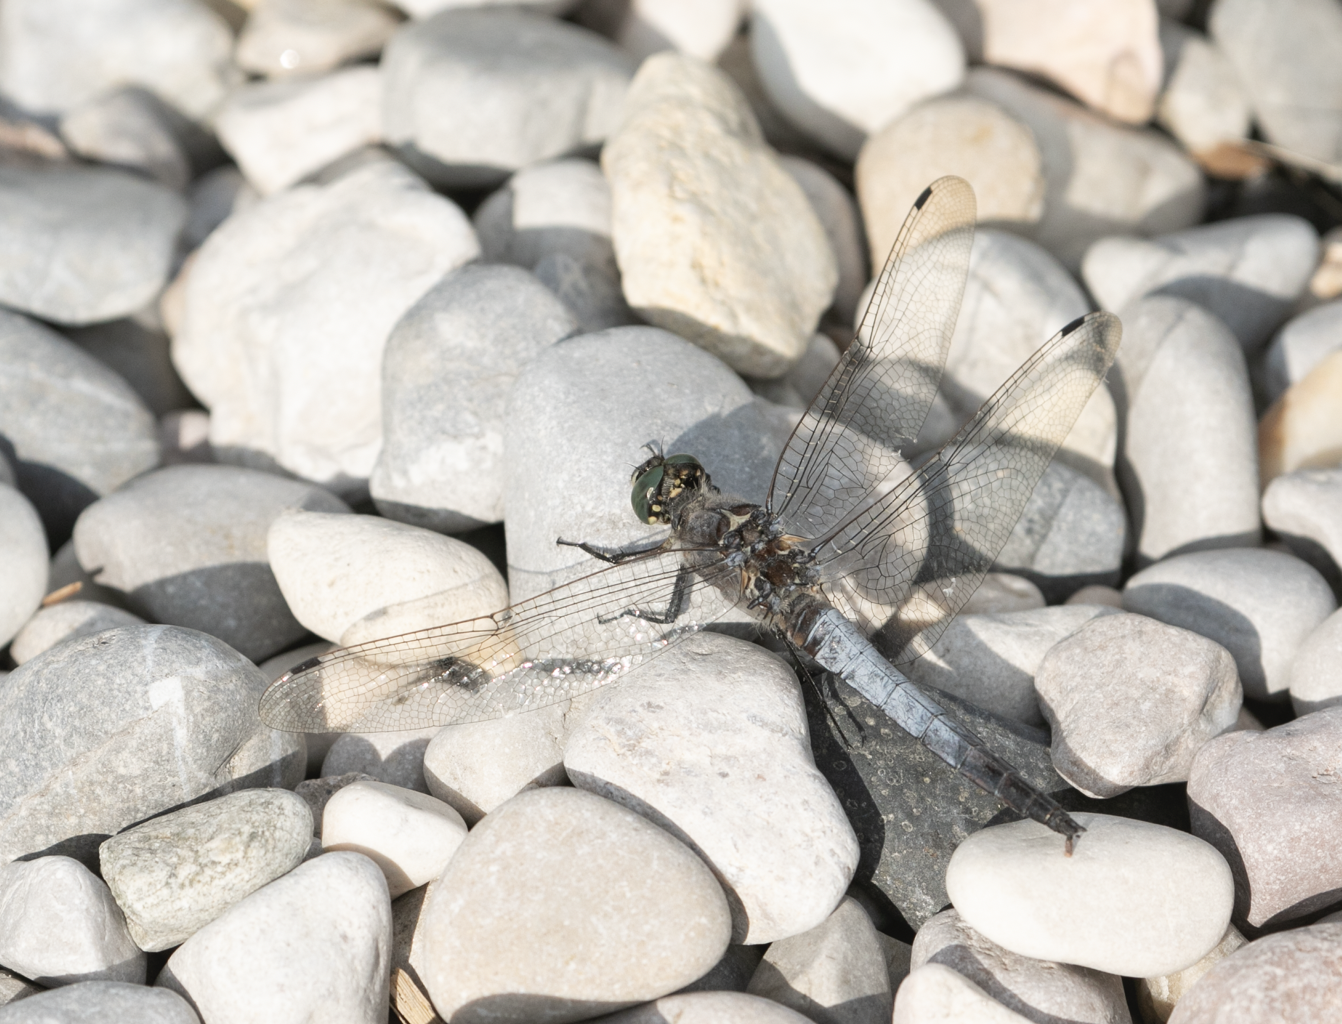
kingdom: Animalia
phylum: Arthropoda
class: Insecta
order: Odonata
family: Libellulidae
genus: Orthetrum
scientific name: Orthetrum cancellatum
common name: Black-tailed skimmer
